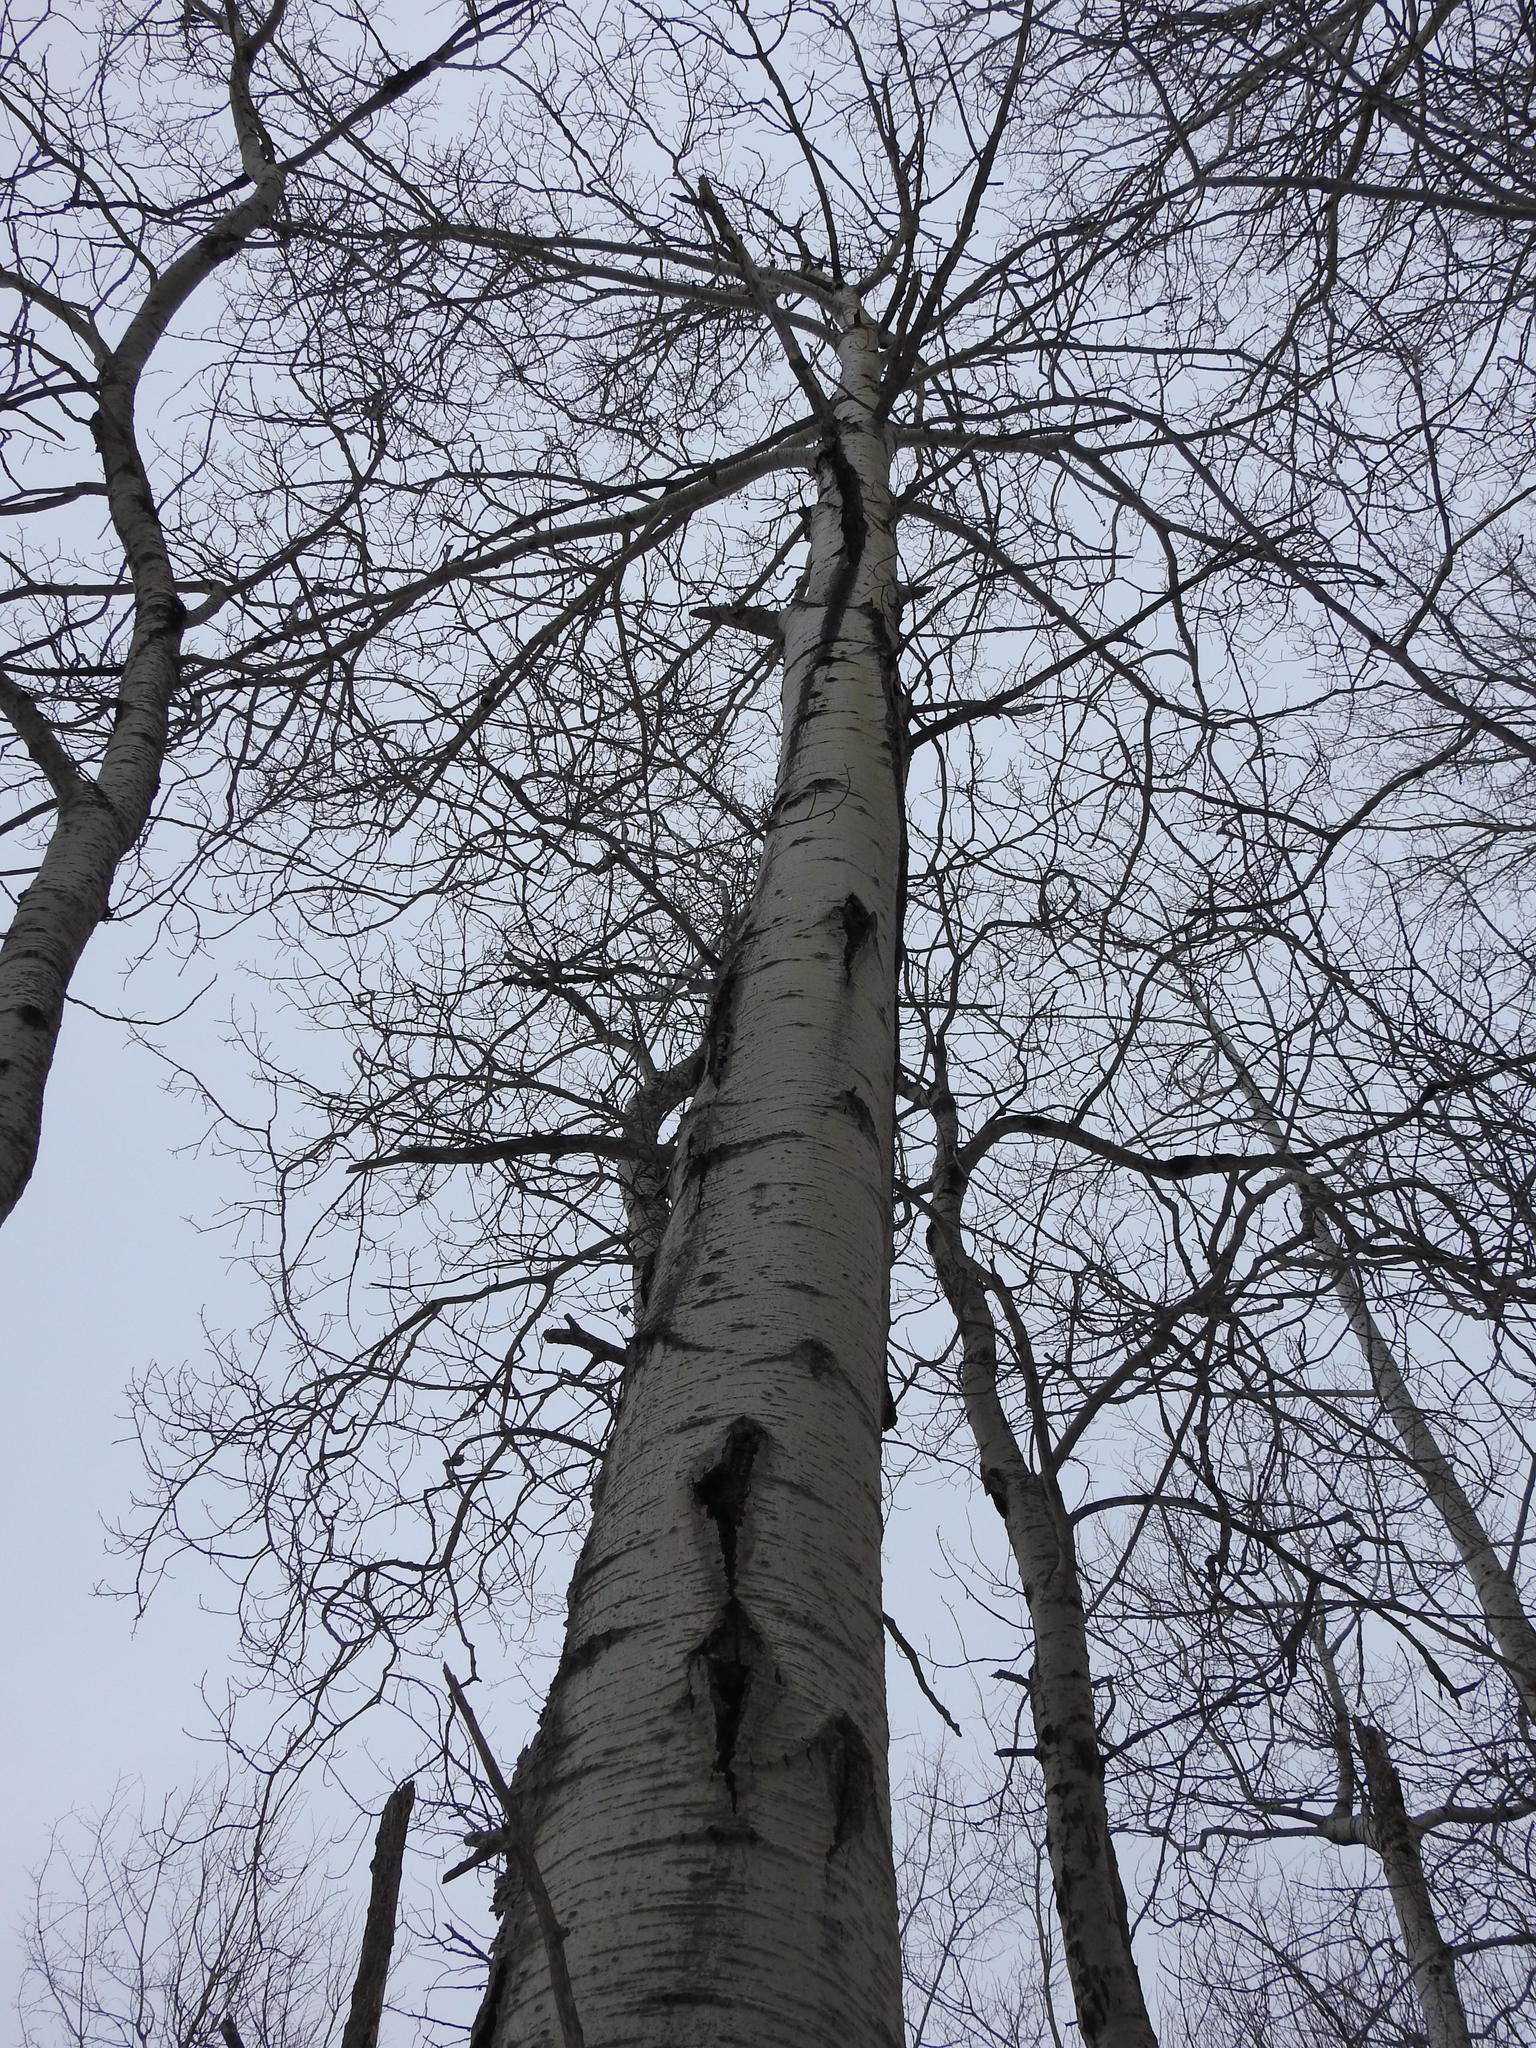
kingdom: Plantae
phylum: Tracheophyta
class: Magnoliopsida
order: Malpighiales
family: Salicaceae
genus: Populus
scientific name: Populus tremuloides
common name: Quaking aspen
